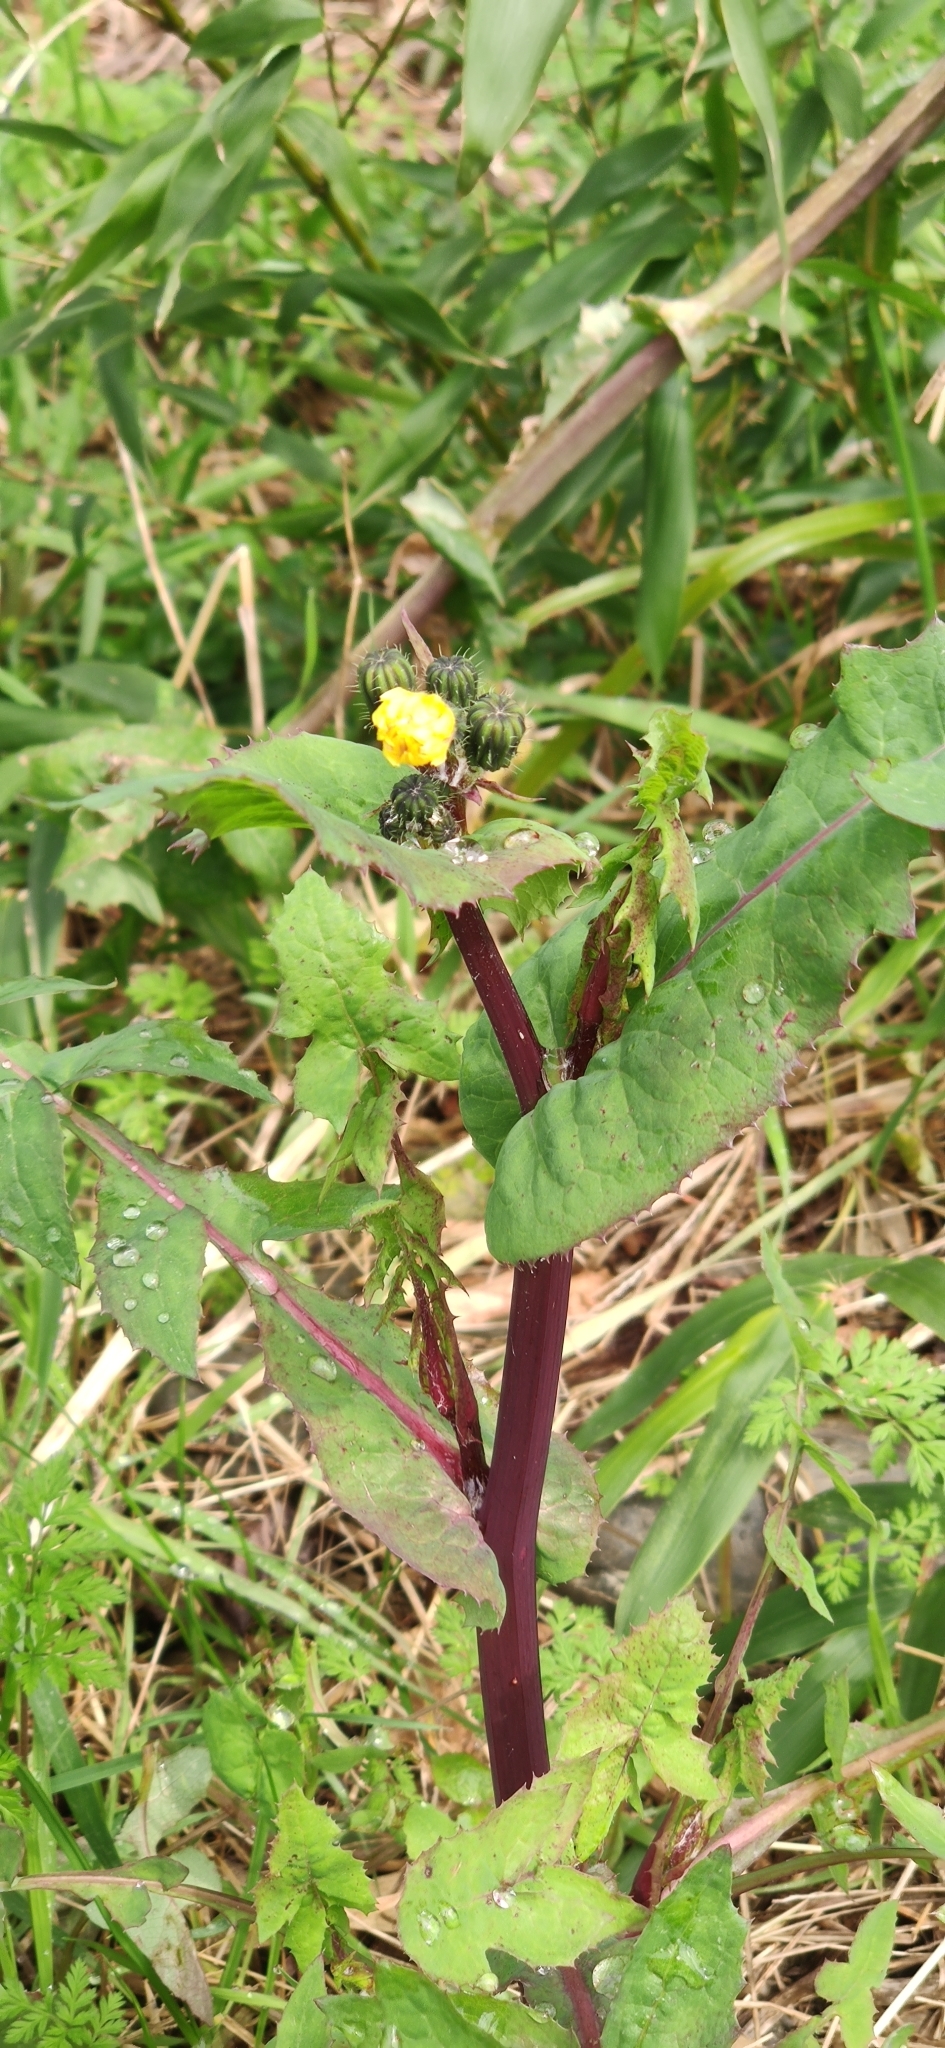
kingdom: Plantae
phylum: Tracheophyta
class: Magnoliopsida
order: Asterales
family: Asteraceae
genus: Sonchus
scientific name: Sonchus oleraceus
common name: Common sowthistle
